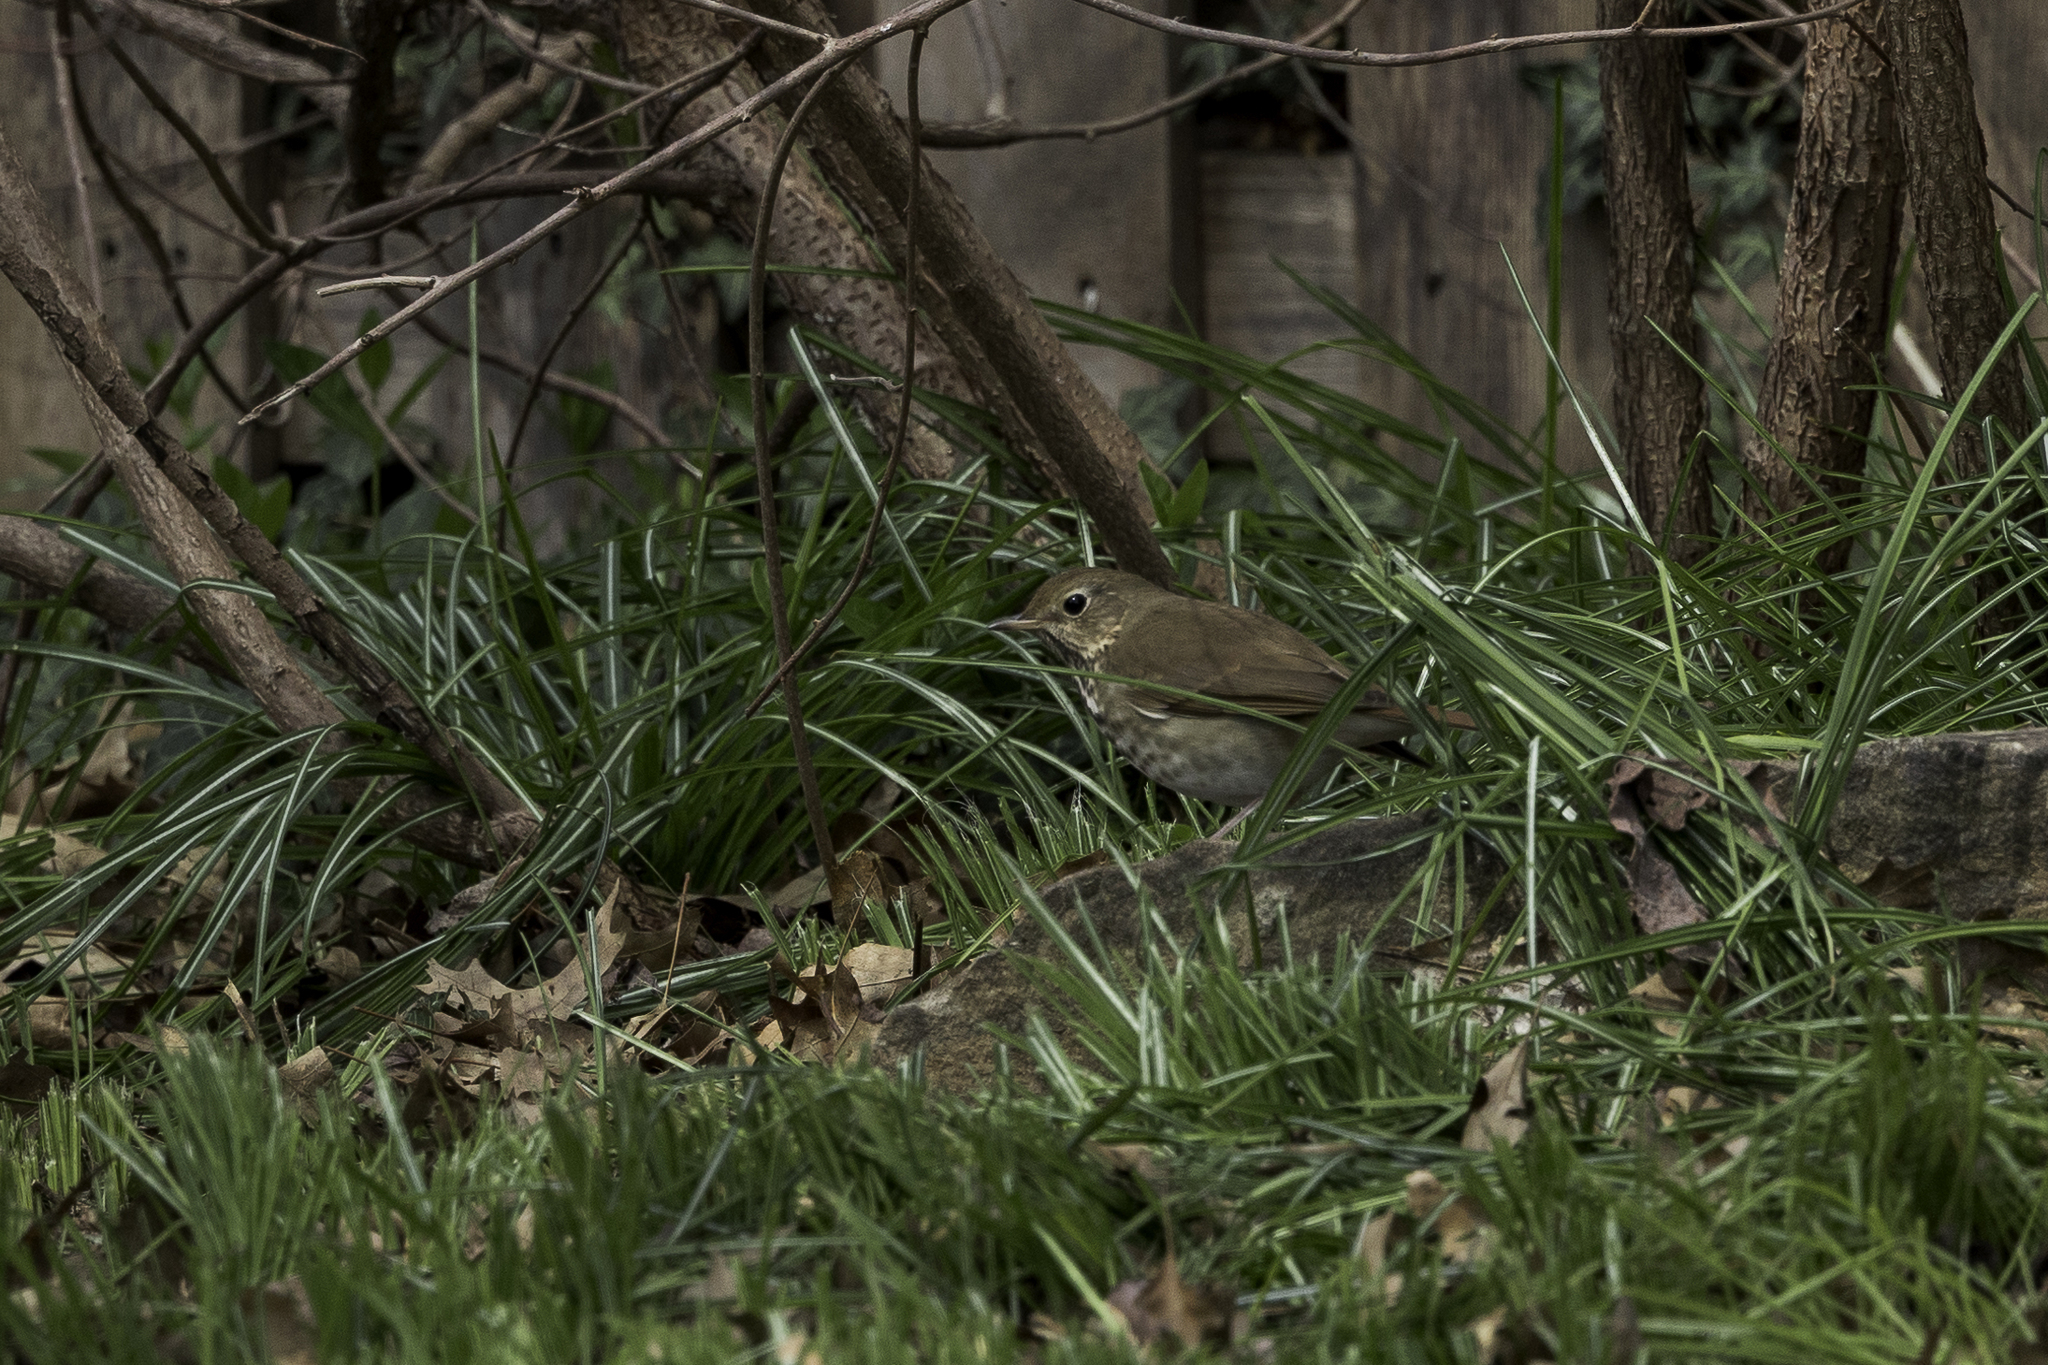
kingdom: Animalia
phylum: Chordata
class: Aves
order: Passeriformes
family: Turdidae
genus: Catharus
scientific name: Catharus guttatus
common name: Hermit thrush
